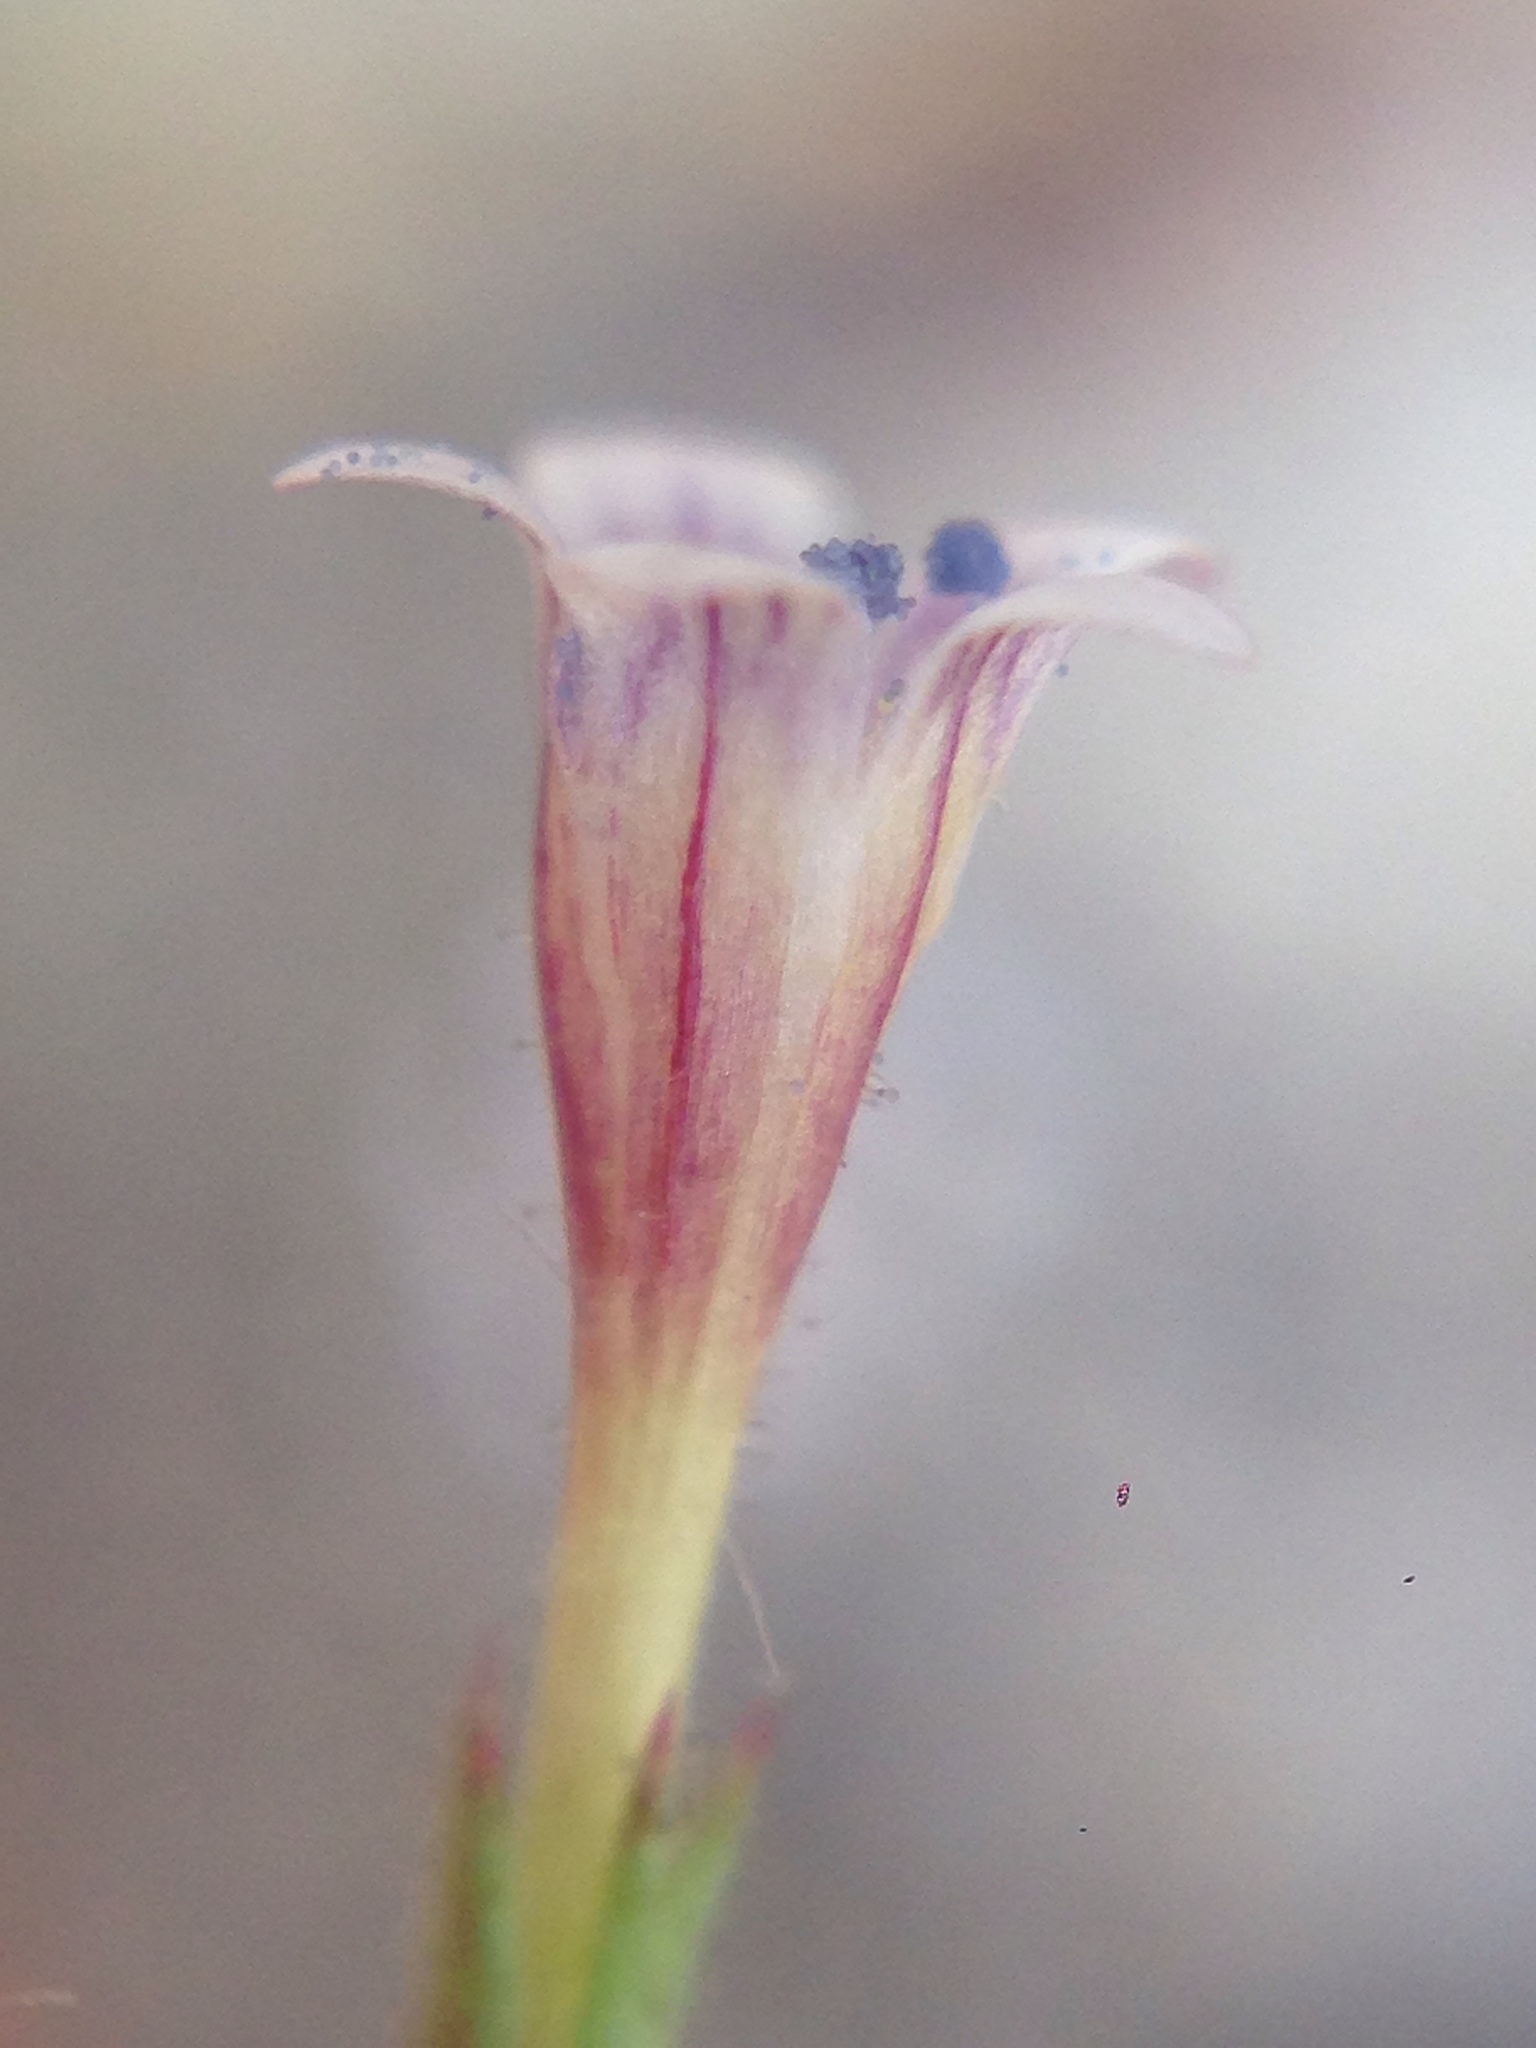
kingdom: Plantae
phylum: Tracheophyta
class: Magnoliopsida
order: Ericales
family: Polemoniaceae
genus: Allophyllum
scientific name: Allophyllum capillare
